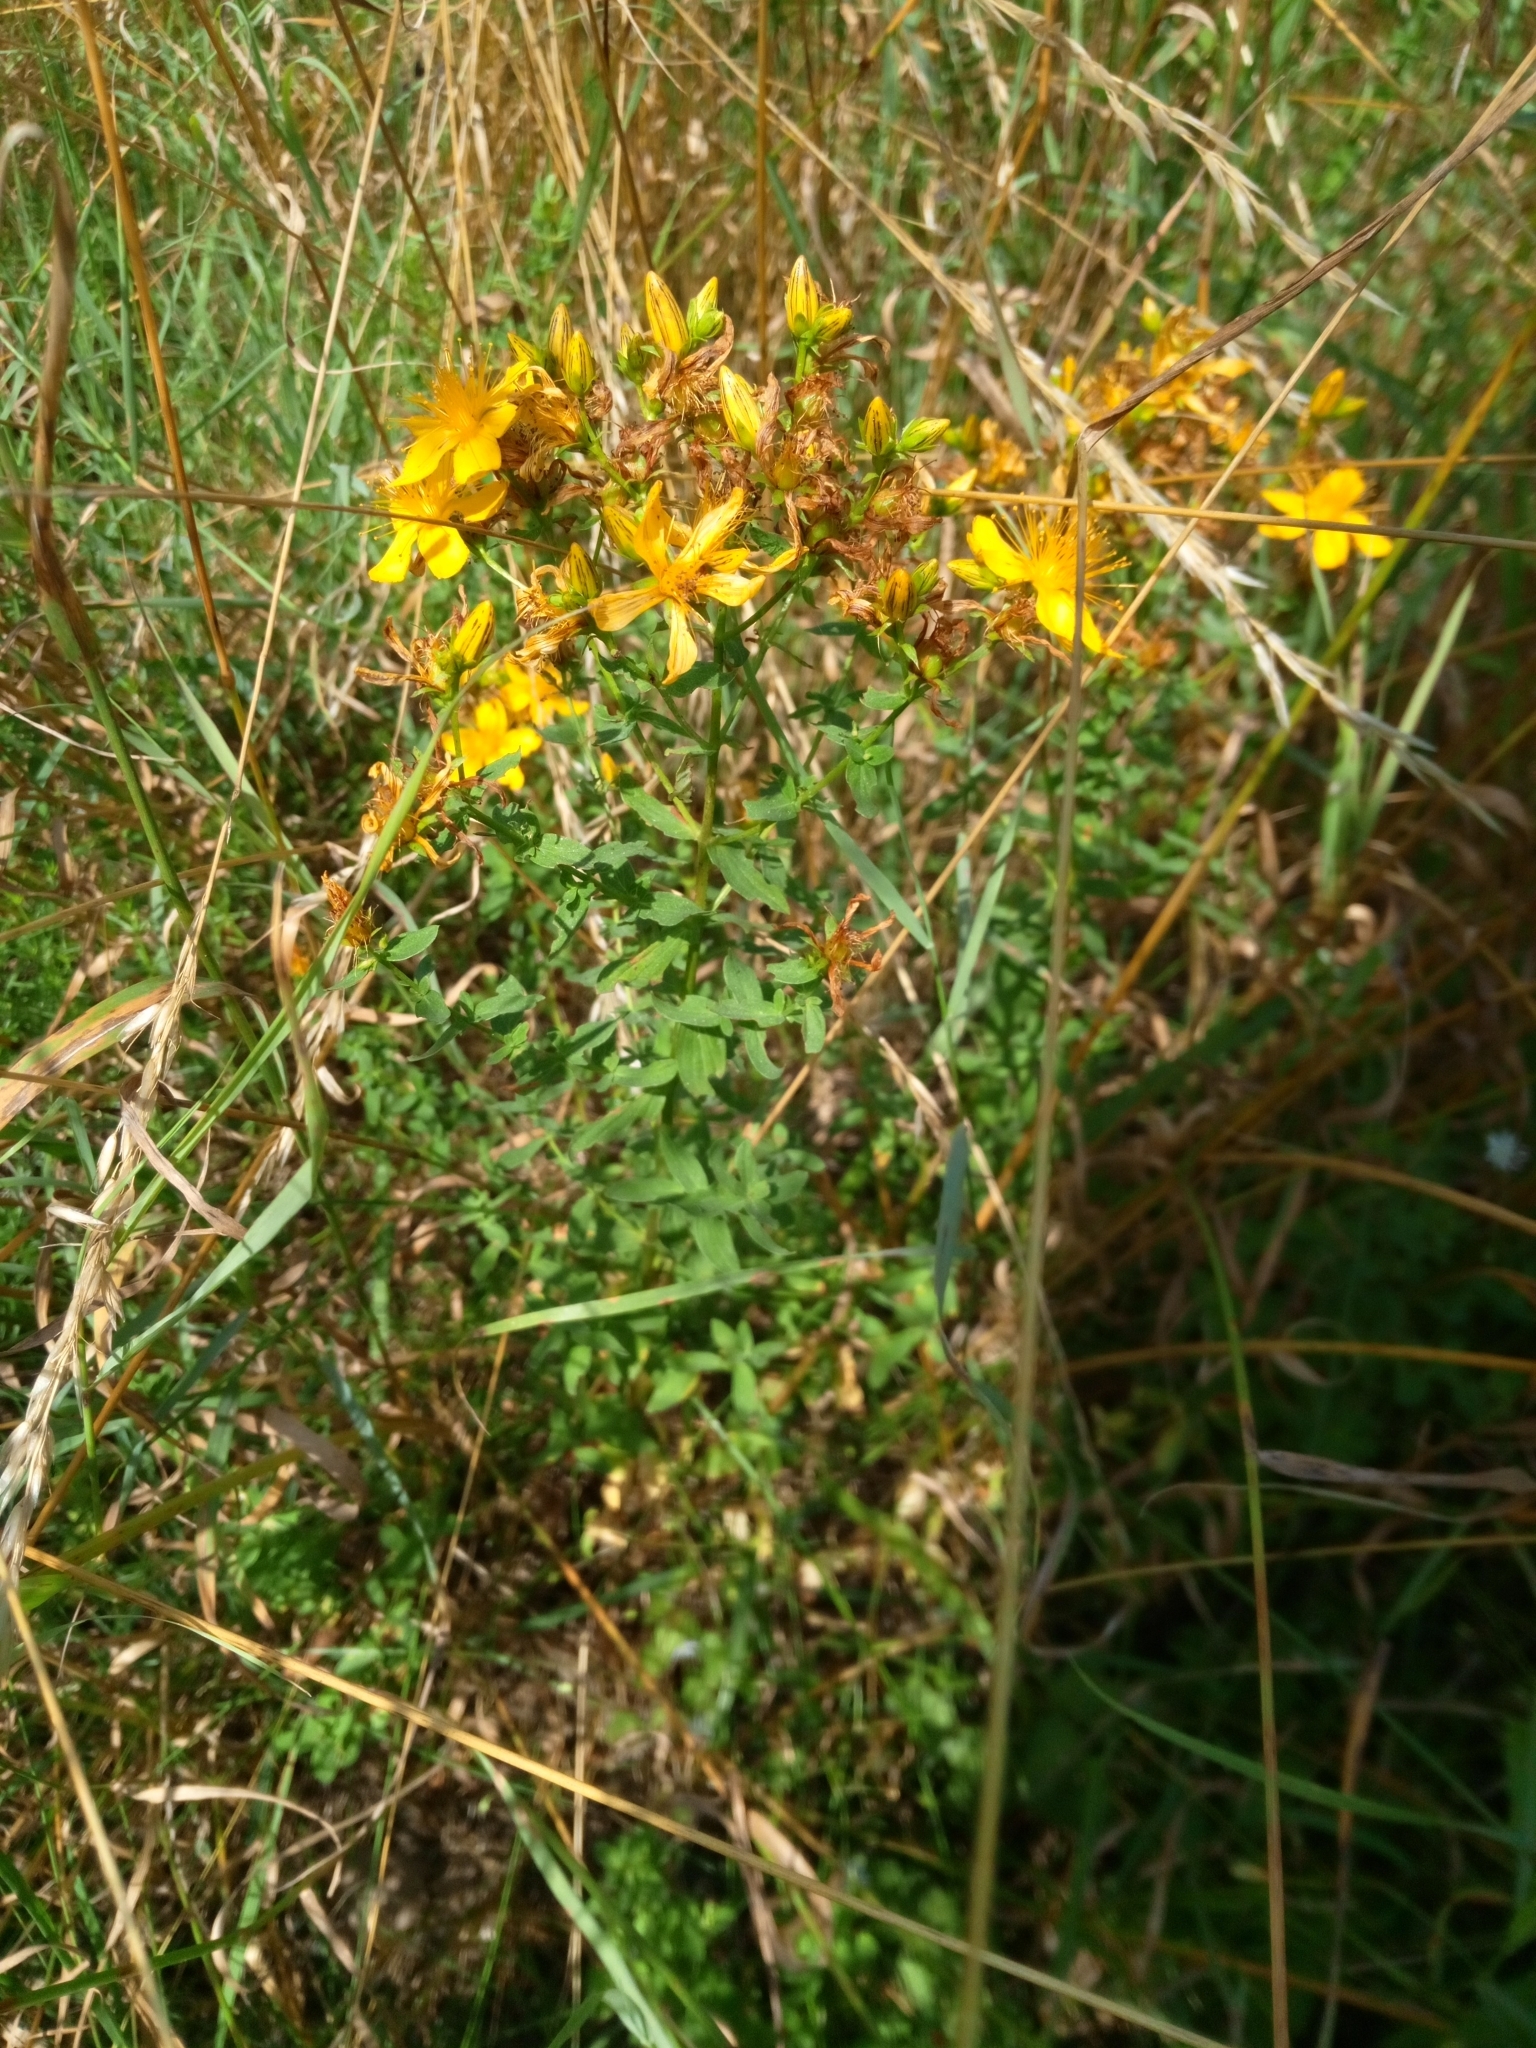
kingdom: Plantae
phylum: Tracheophyta
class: Magnoliopsida
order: Malpighiales
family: Hypericaceae
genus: Hypericum
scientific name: Hypericum perforatum
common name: Common st. johnswort
